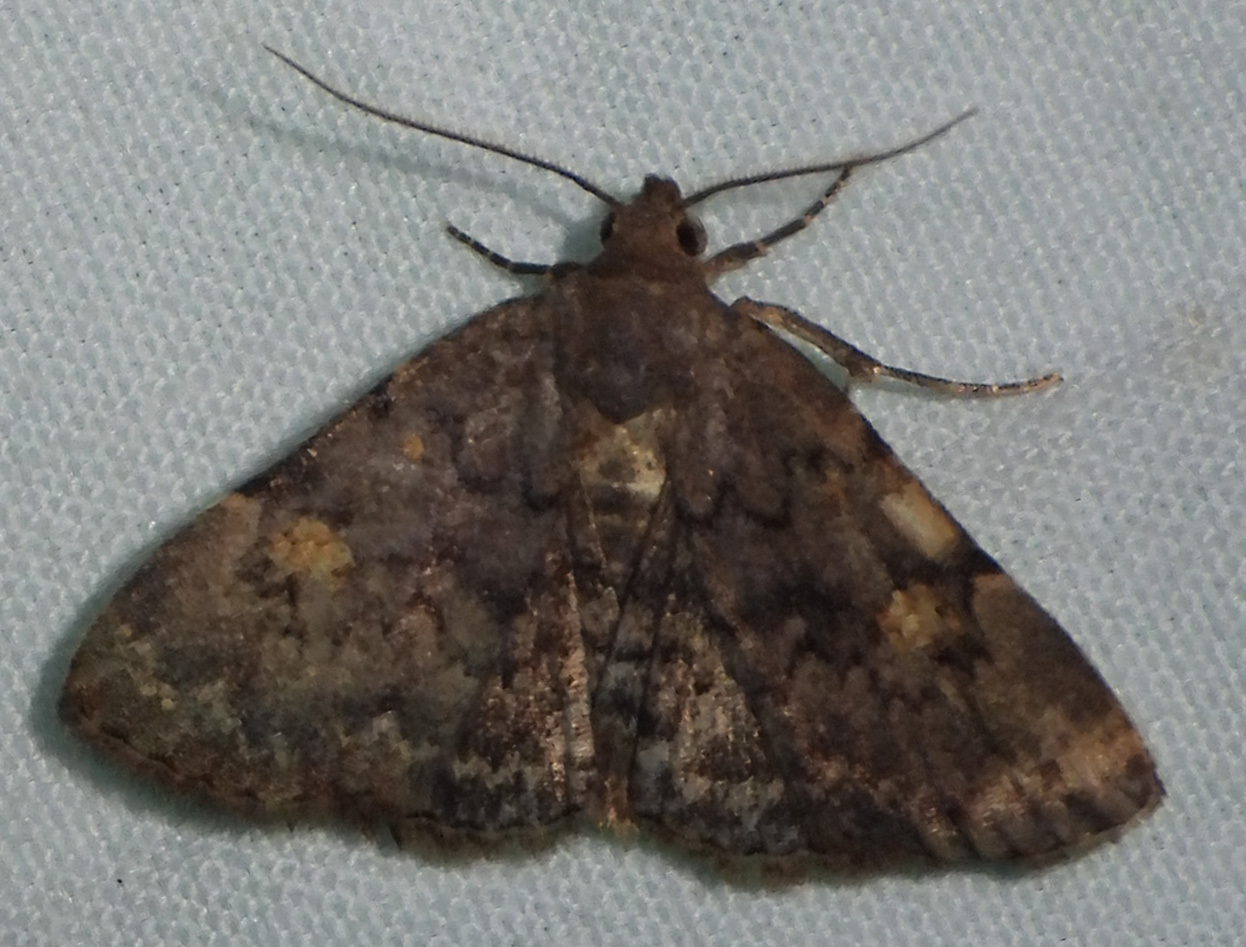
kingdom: Animalia
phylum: Arthropoda
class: Insecta
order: Lepidoptera
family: Erebidae
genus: Idia
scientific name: Idia aemula
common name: Common idia moth
